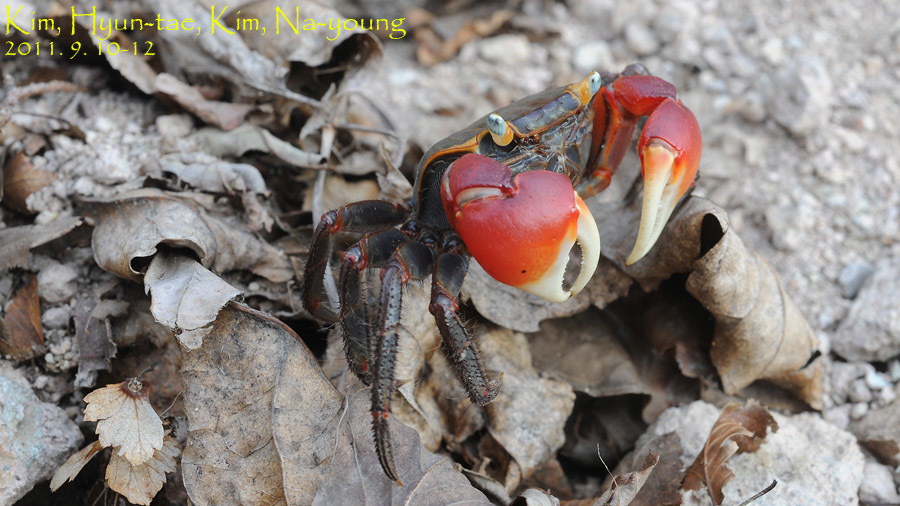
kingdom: Animalia
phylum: Arthropoda
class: Malacostraca
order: Decapoda
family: Sesarmidae
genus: Chiromantes
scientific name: Chiromantes haematocheir
